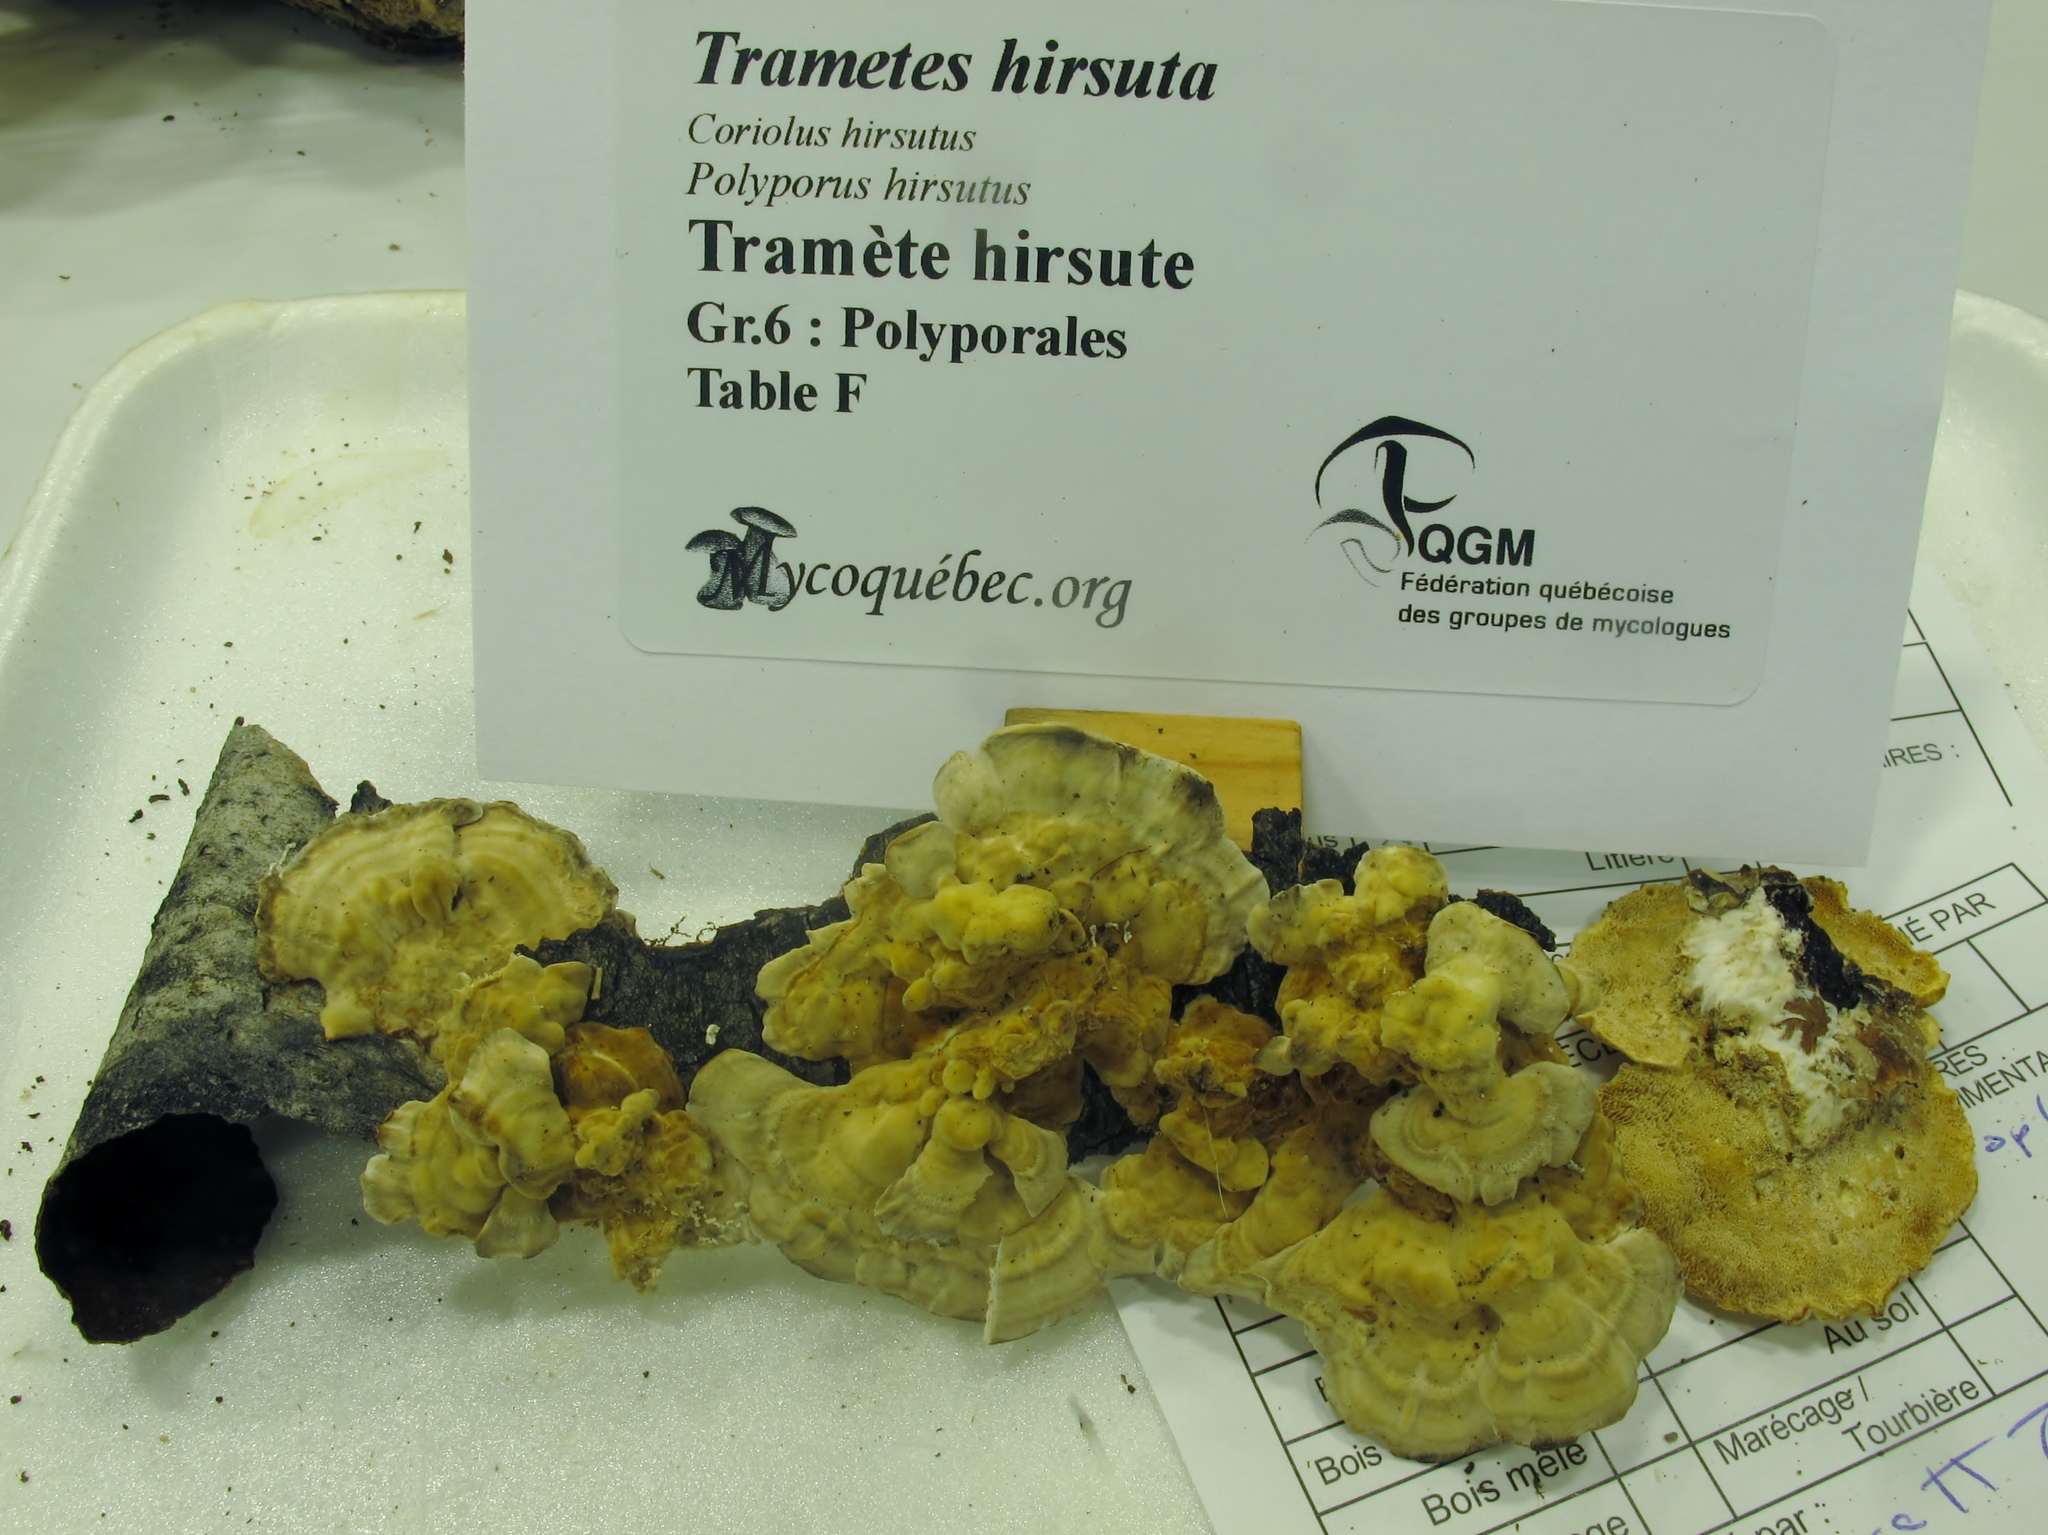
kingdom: Fungi
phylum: Basidiomycota
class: Agaricomycetes
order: Polyporales
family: Polyporaceae
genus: Trametes
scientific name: Trametes hirsuta
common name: Hairy bracket
